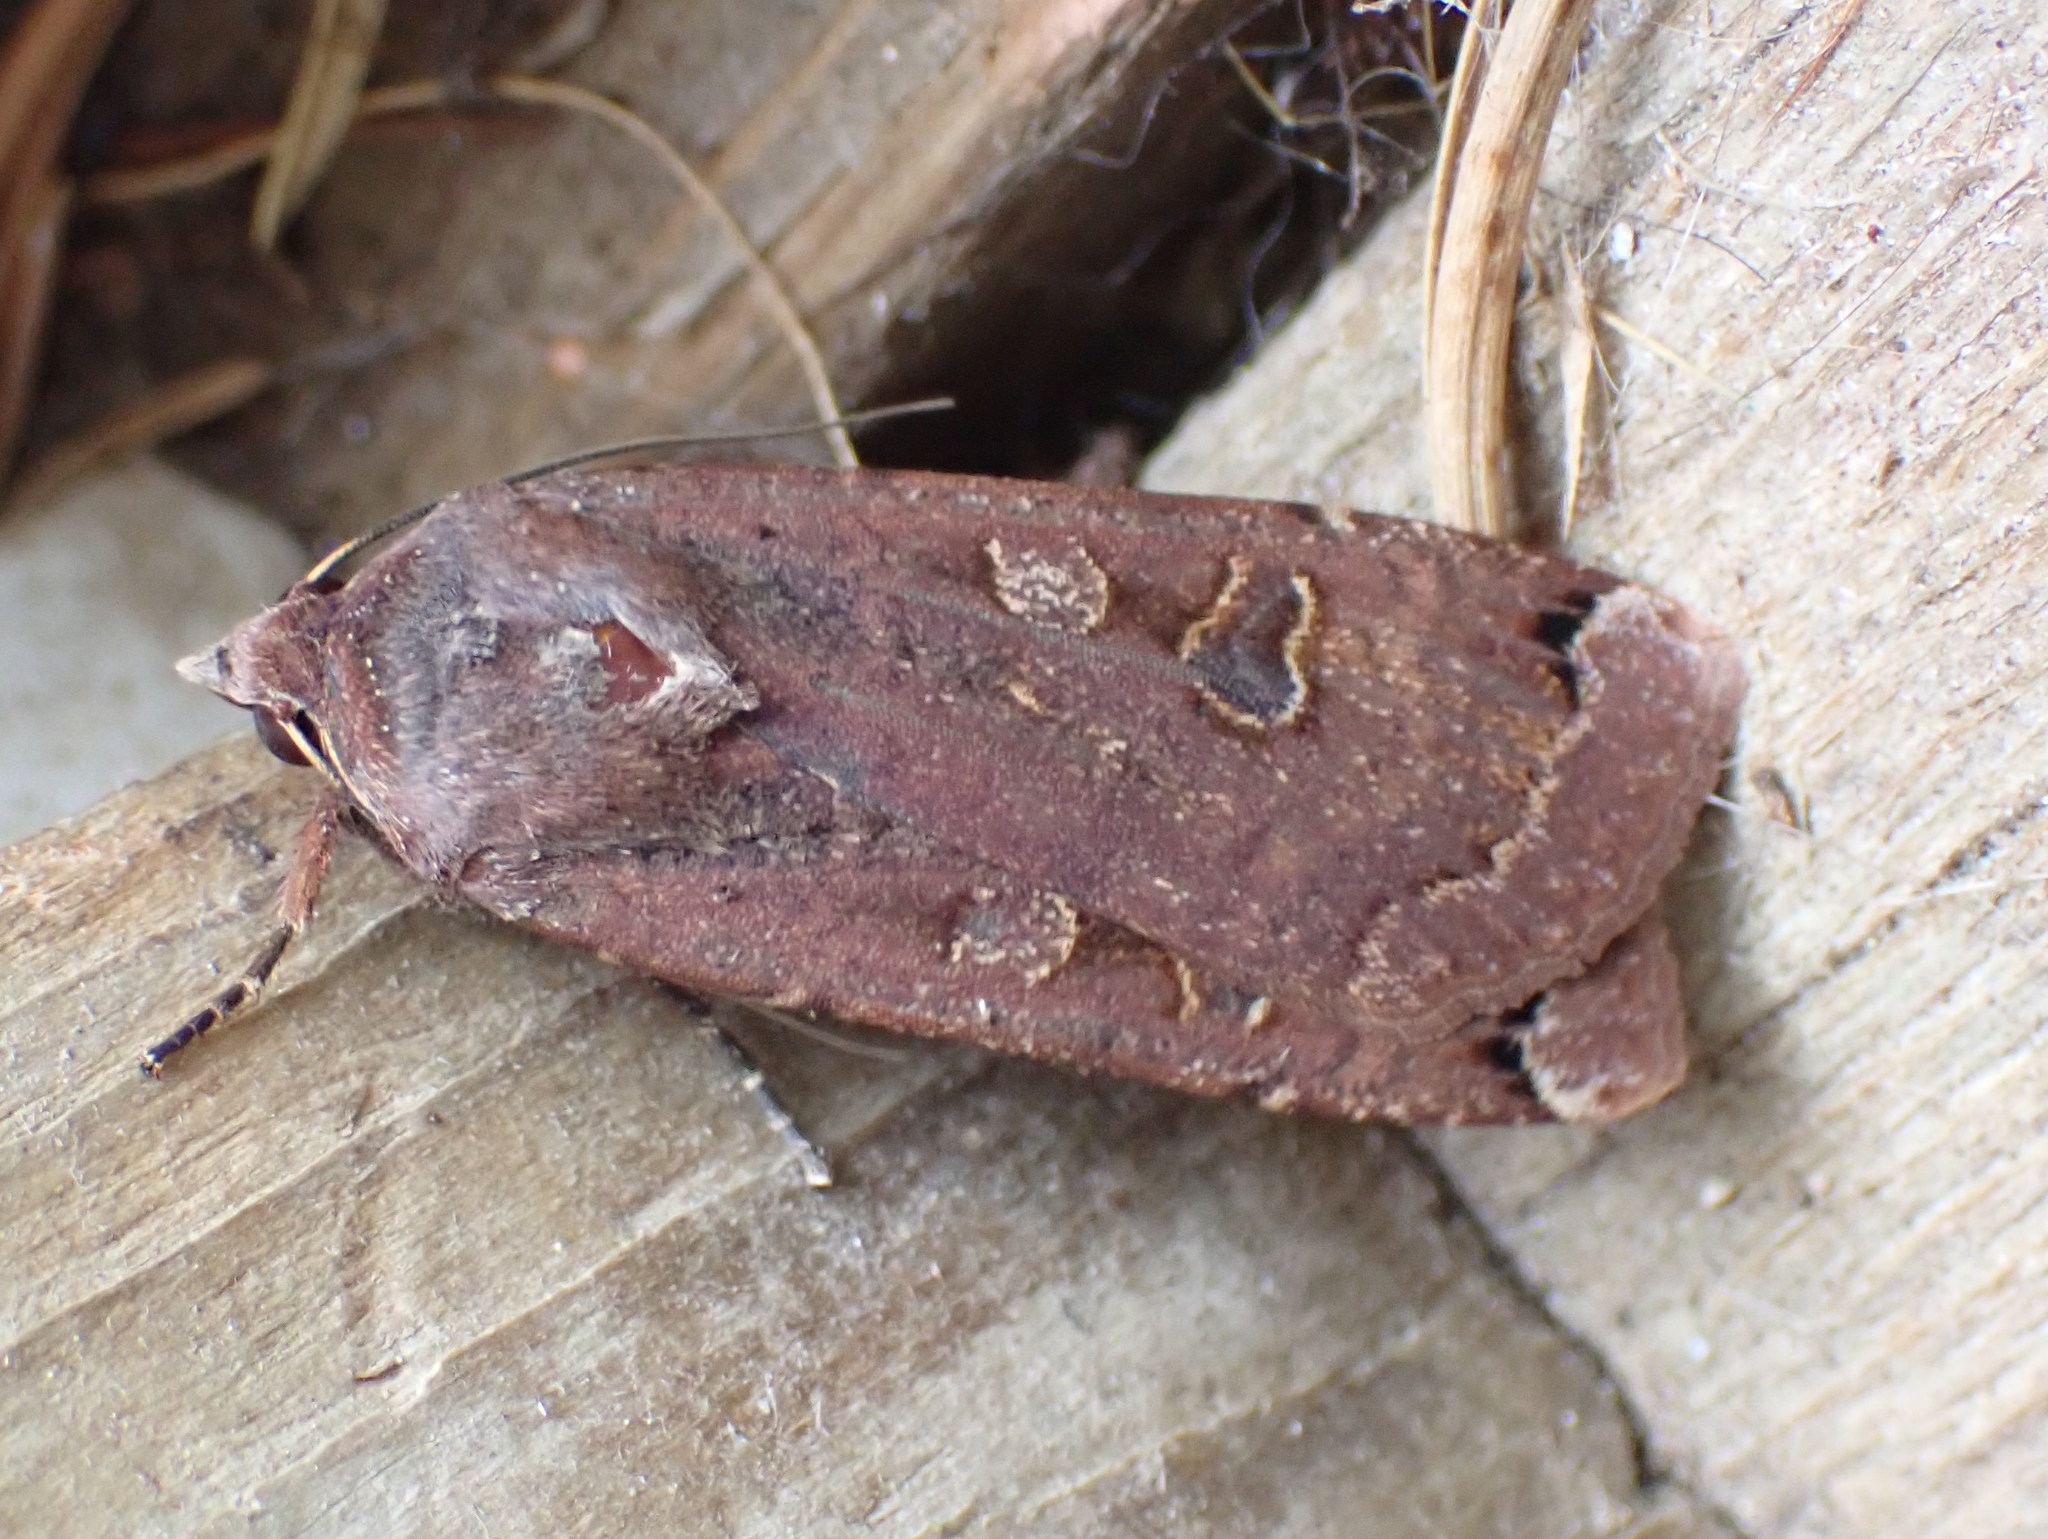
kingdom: Animalia
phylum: Arthropoda
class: Insecta
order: Lepidoptera
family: Noctuidae
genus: Noctua
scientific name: Noctua pronuba
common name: Large yellow underwing
